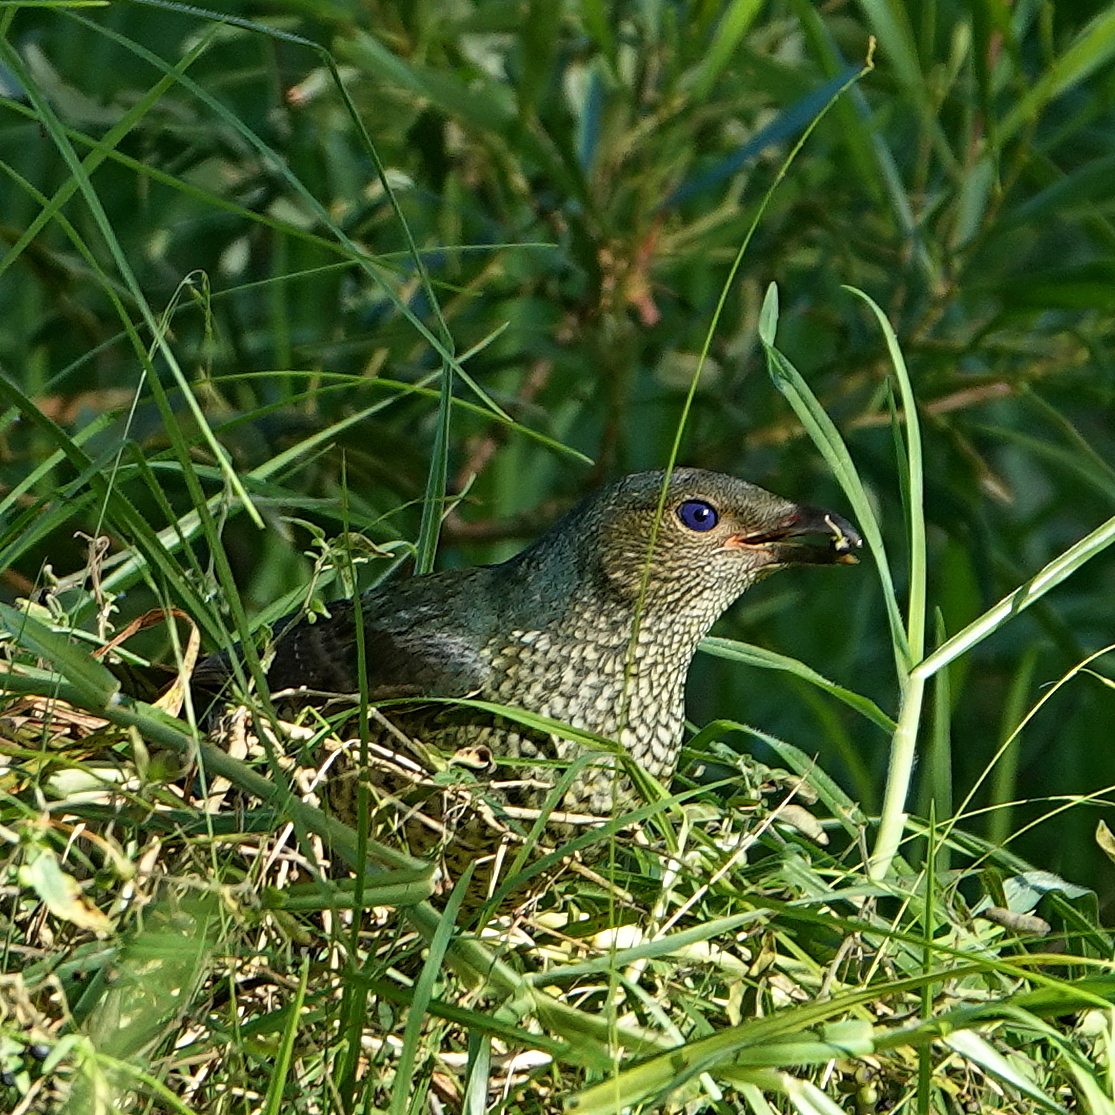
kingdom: Animalia
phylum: Chordata
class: Aves
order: Passeriformes
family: Ptilonorhynchidae
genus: Ptilonorhynchus
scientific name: Ptilonorhynchus violaceus
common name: Satin bowerbird
